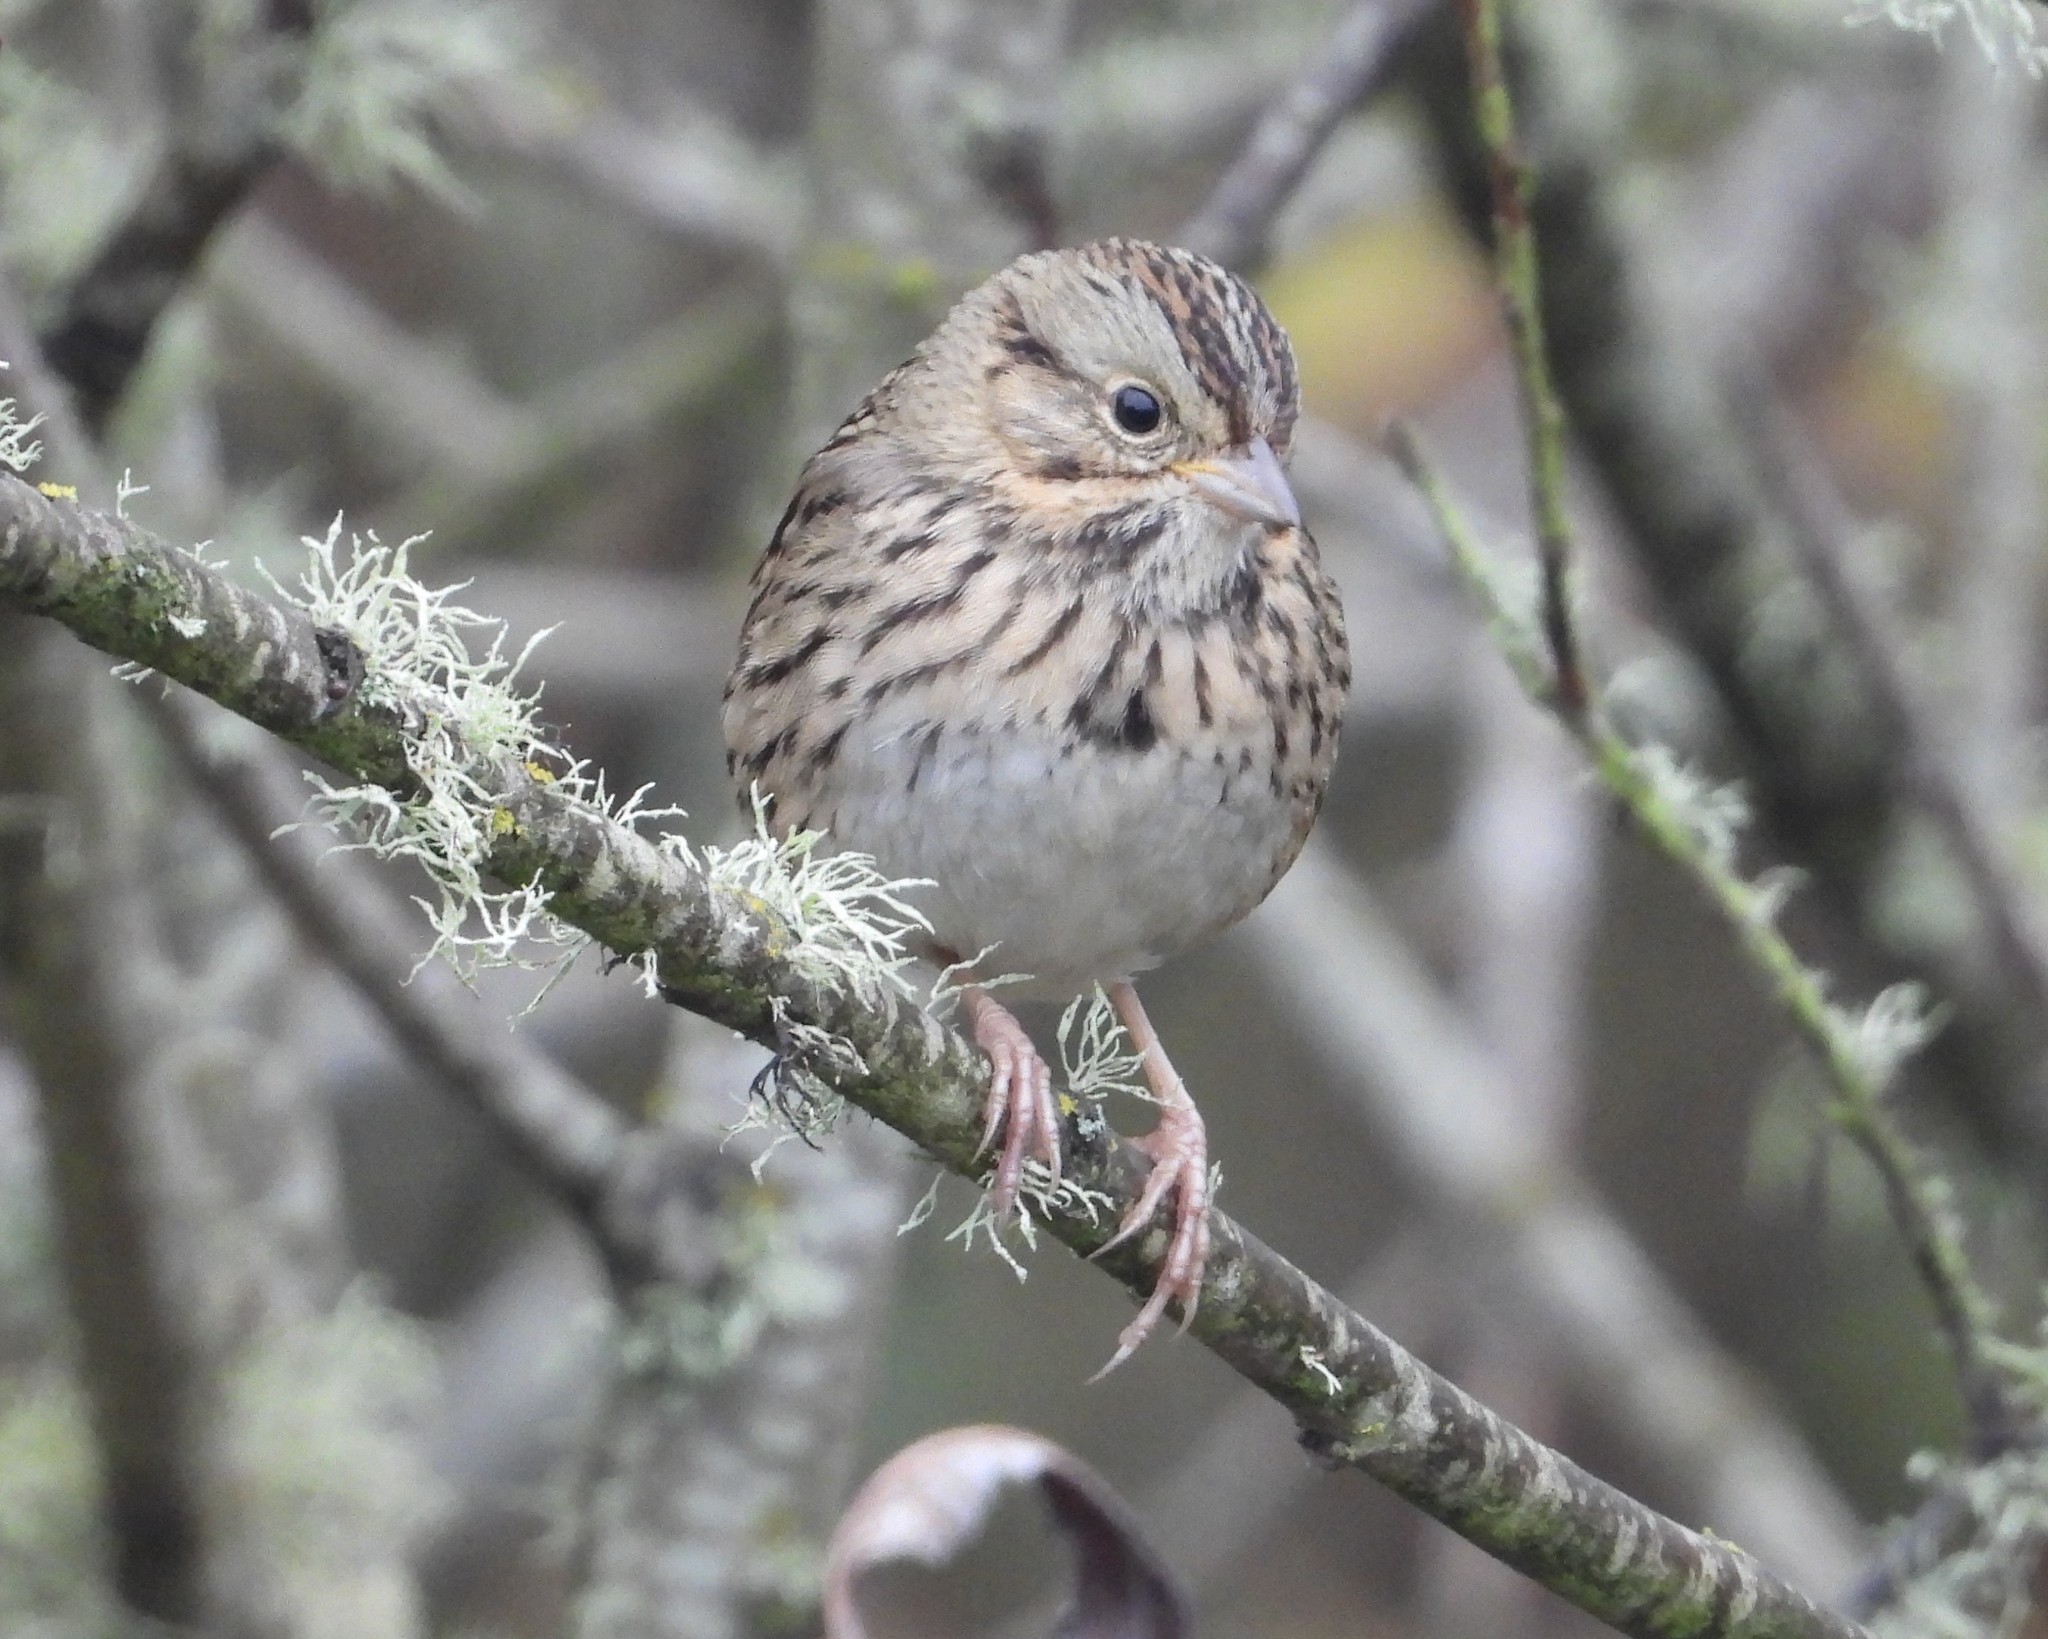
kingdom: Animalia
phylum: Chordata
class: Aves
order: Passeriformes
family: Passerellidae
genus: Melospiza
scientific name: Melospiza lincolnii
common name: Lincoln's sparrow
